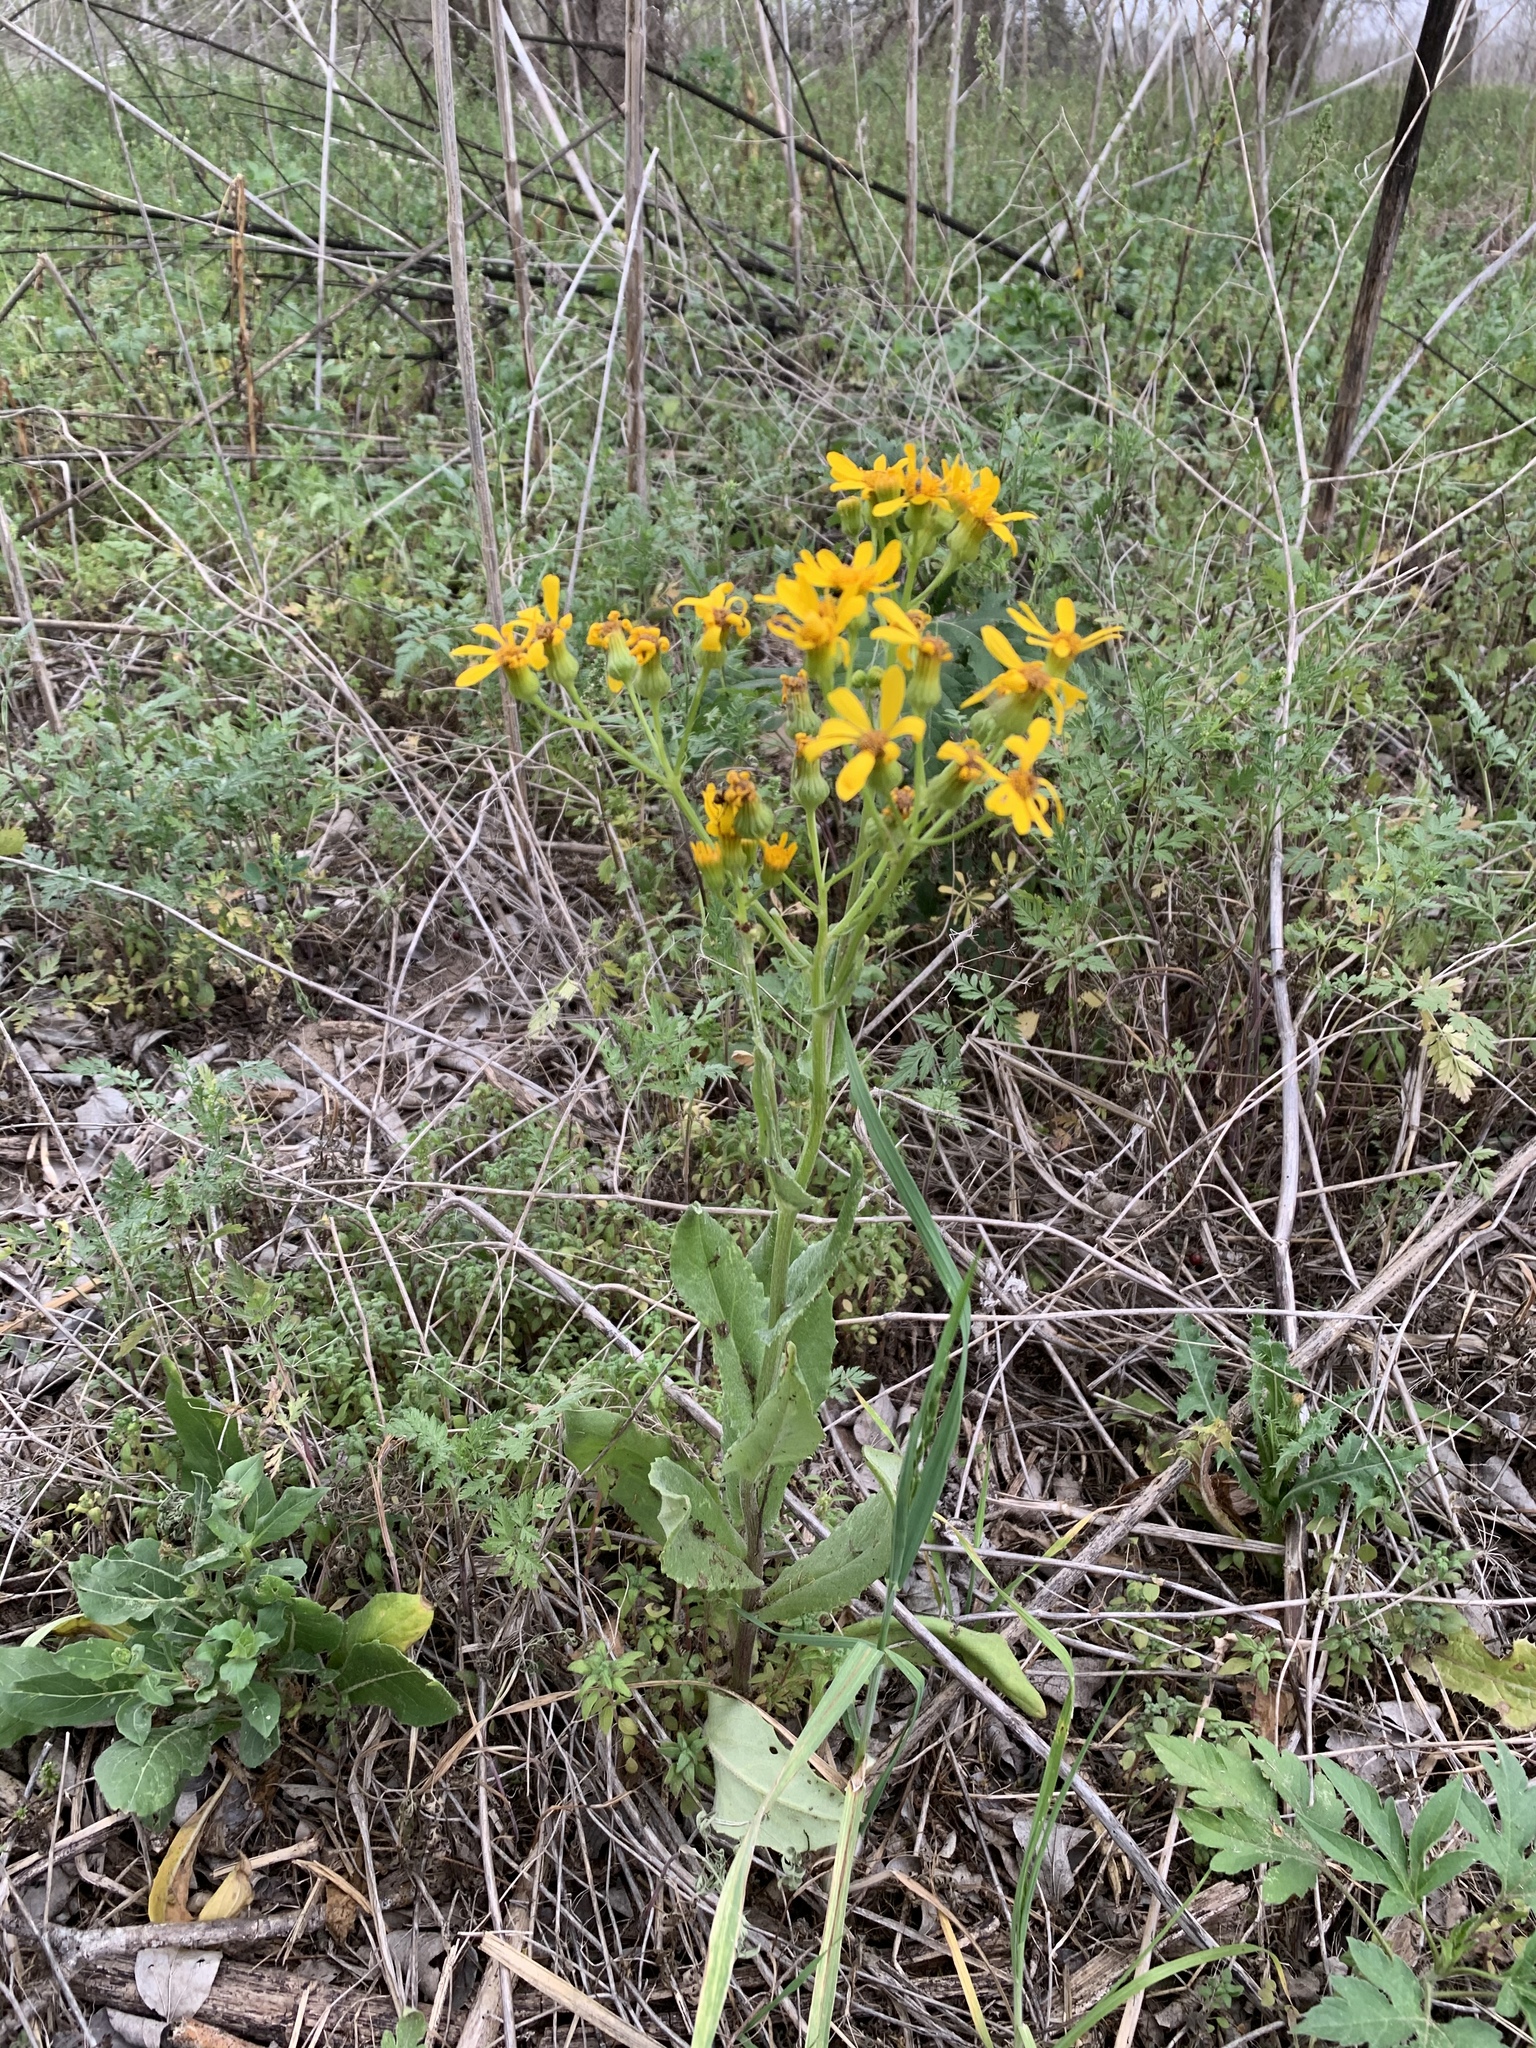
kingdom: Plantae
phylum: Tracheophyta
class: Magnoliopsida
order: Asterales
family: Asteraceae
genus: Senecio
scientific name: Senecio ampullaceus
